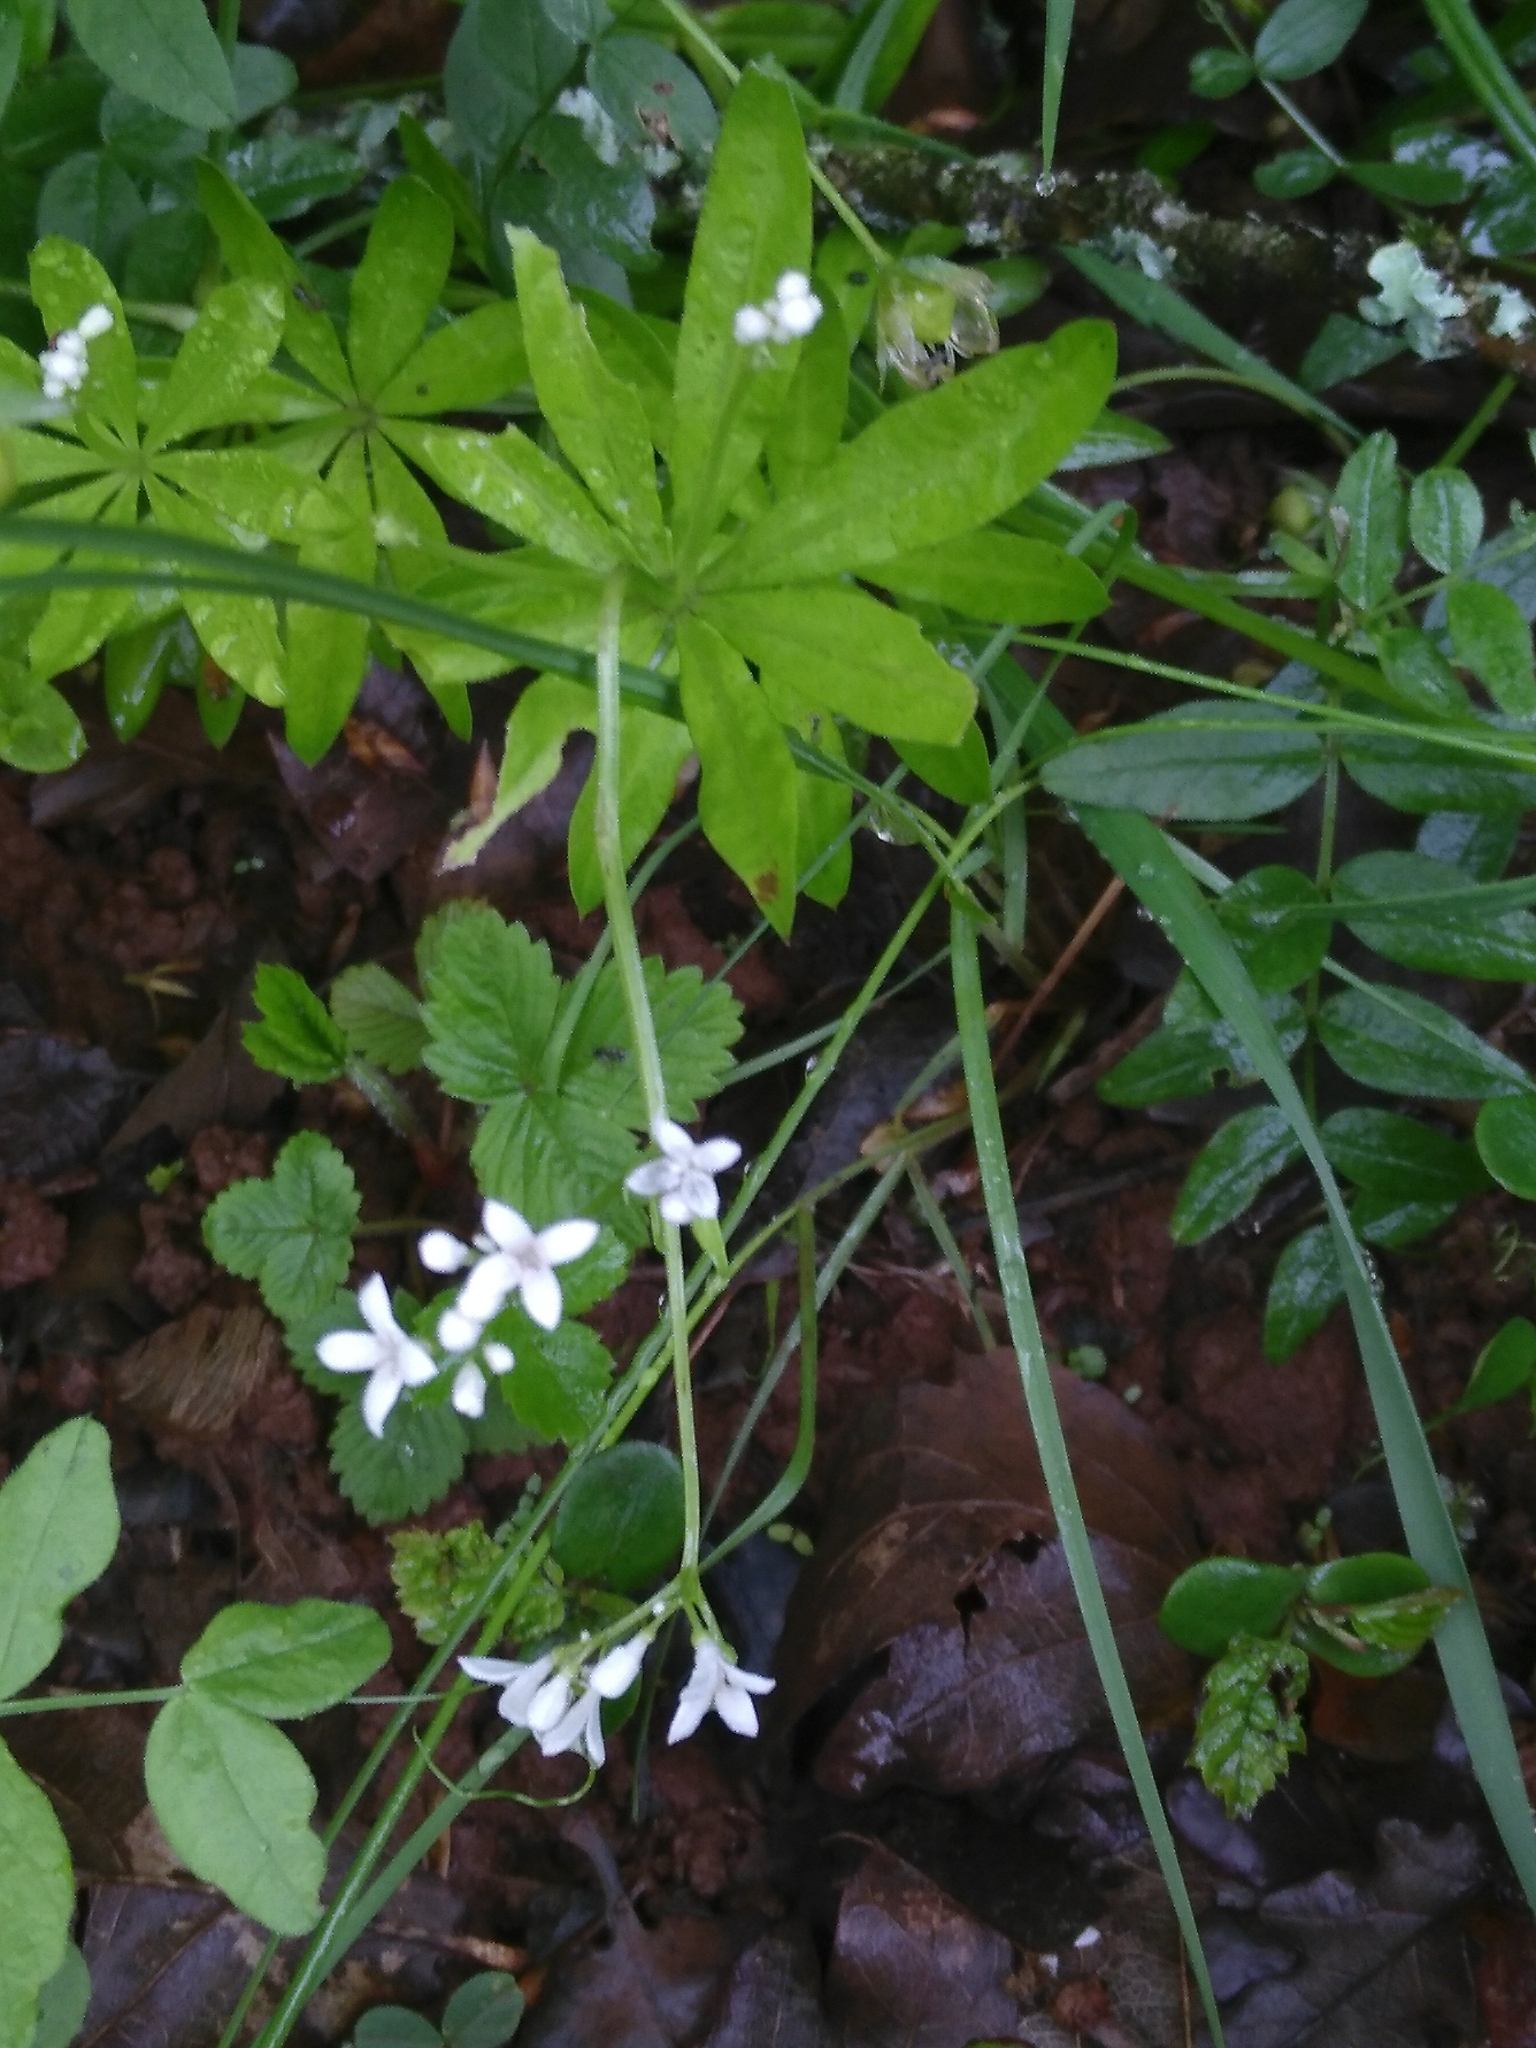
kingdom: Plantae
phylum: Tracheophyta
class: Magnoliopsida
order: Gentianales
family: Rubiaceae
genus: Galium
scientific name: Galium odoratum
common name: Sweet woodruff
